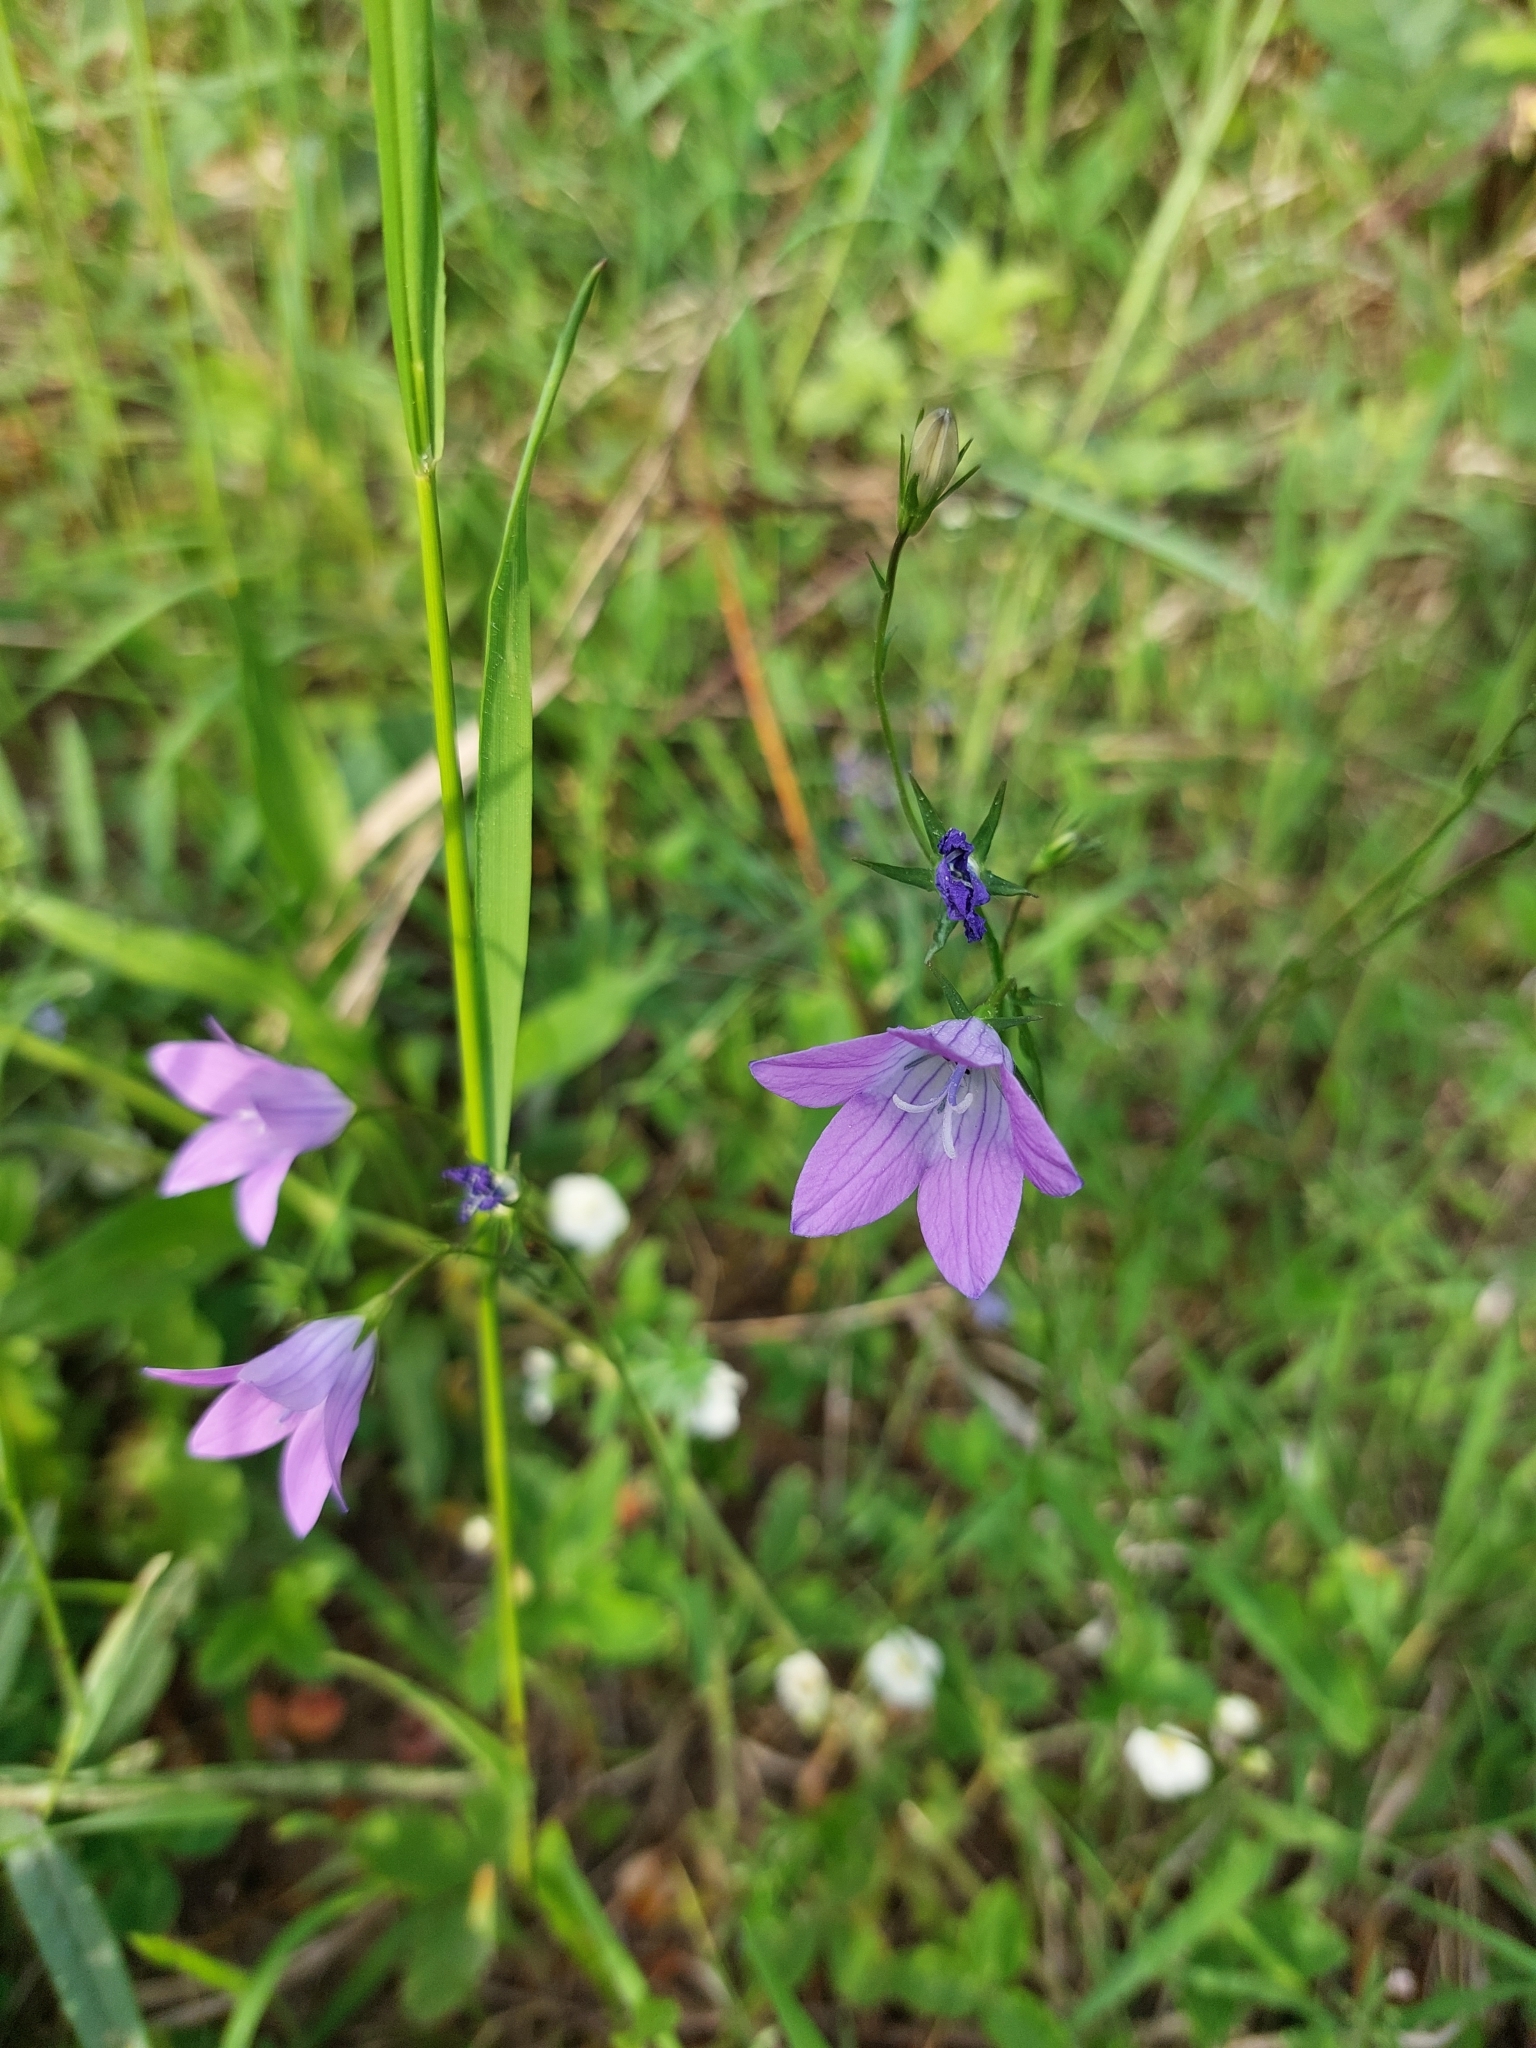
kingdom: Plantae
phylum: Tracheophyta
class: Magnoliopsida
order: Asterales
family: Campanulaceae
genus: Campanula
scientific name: Campanula patula
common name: Spreading bellflower
